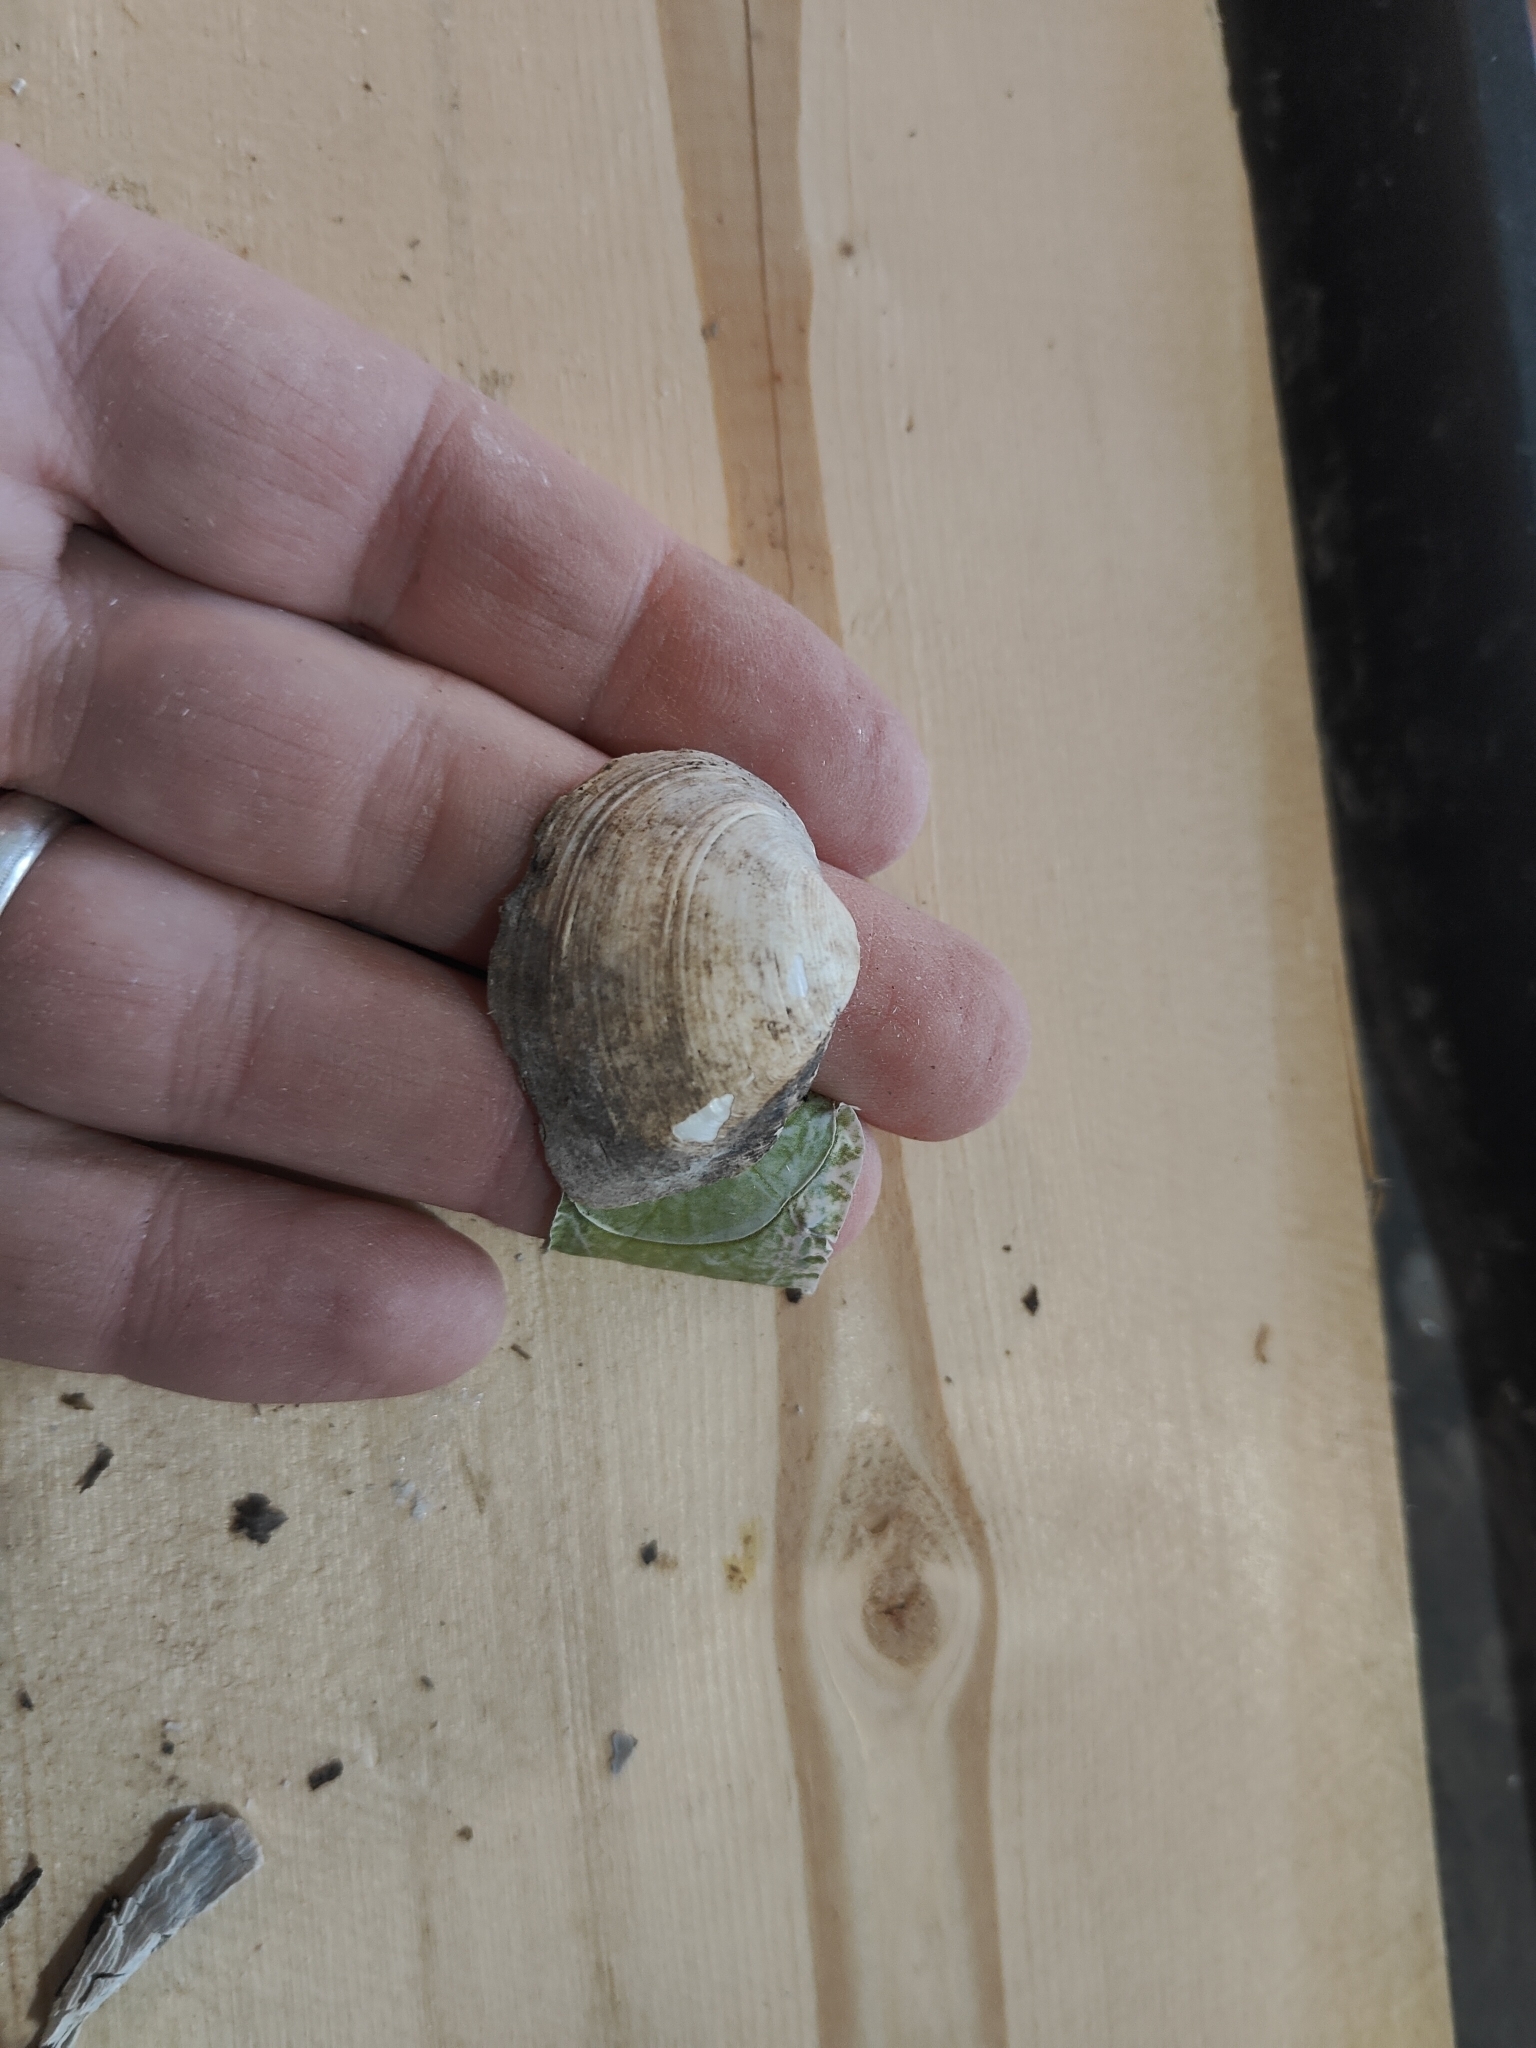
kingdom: Animalia
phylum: Mollusca
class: Bivalvia
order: Unionida
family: Unionidae
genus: Fusconaia
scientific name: Fusconaia flava
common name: Wabash pigtoe
